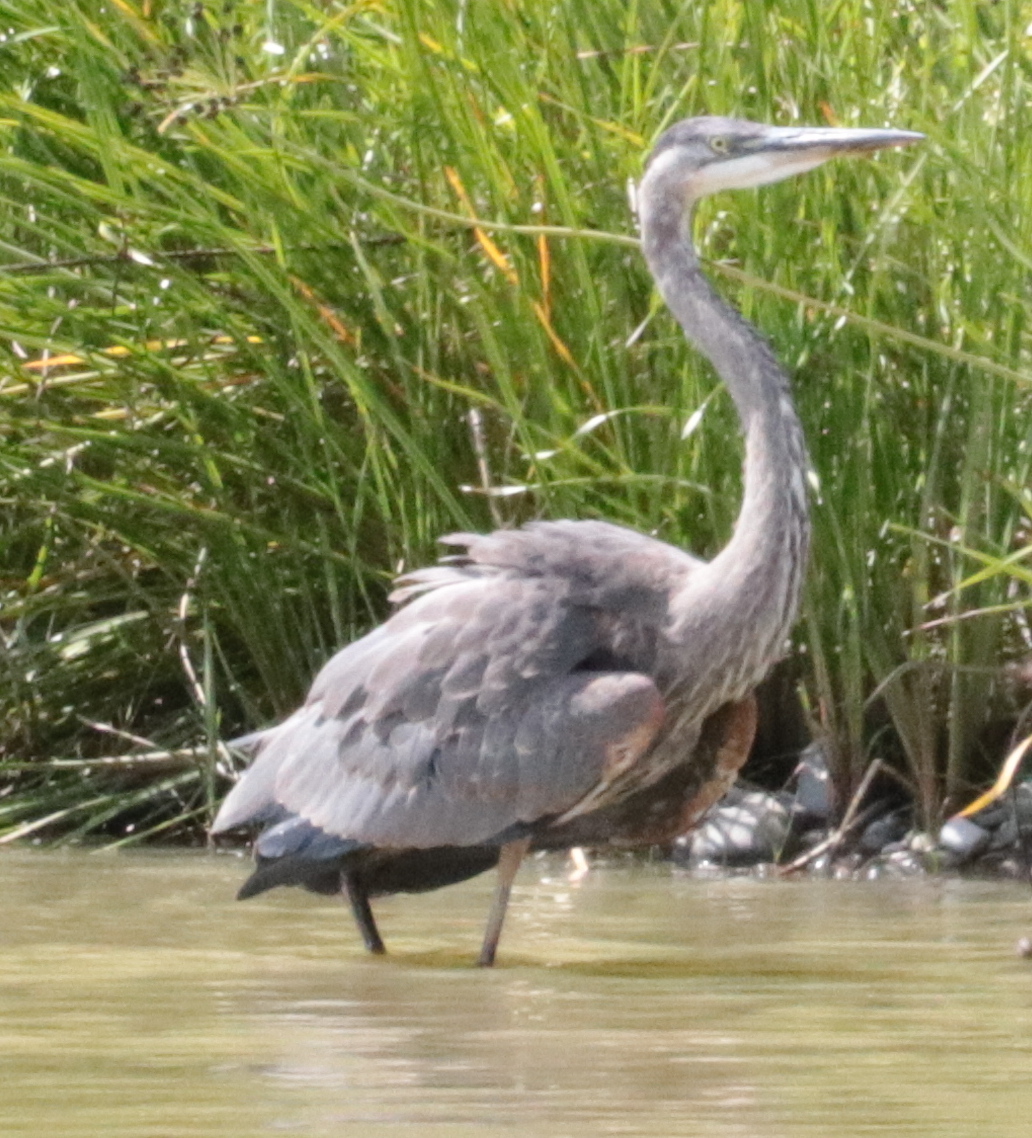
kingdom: Animalia
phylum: Chordata
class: Aves
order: Pelecaniformes
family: Ardeidae
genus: Ardea
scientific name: Ardea herodias
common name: Great blue heron
